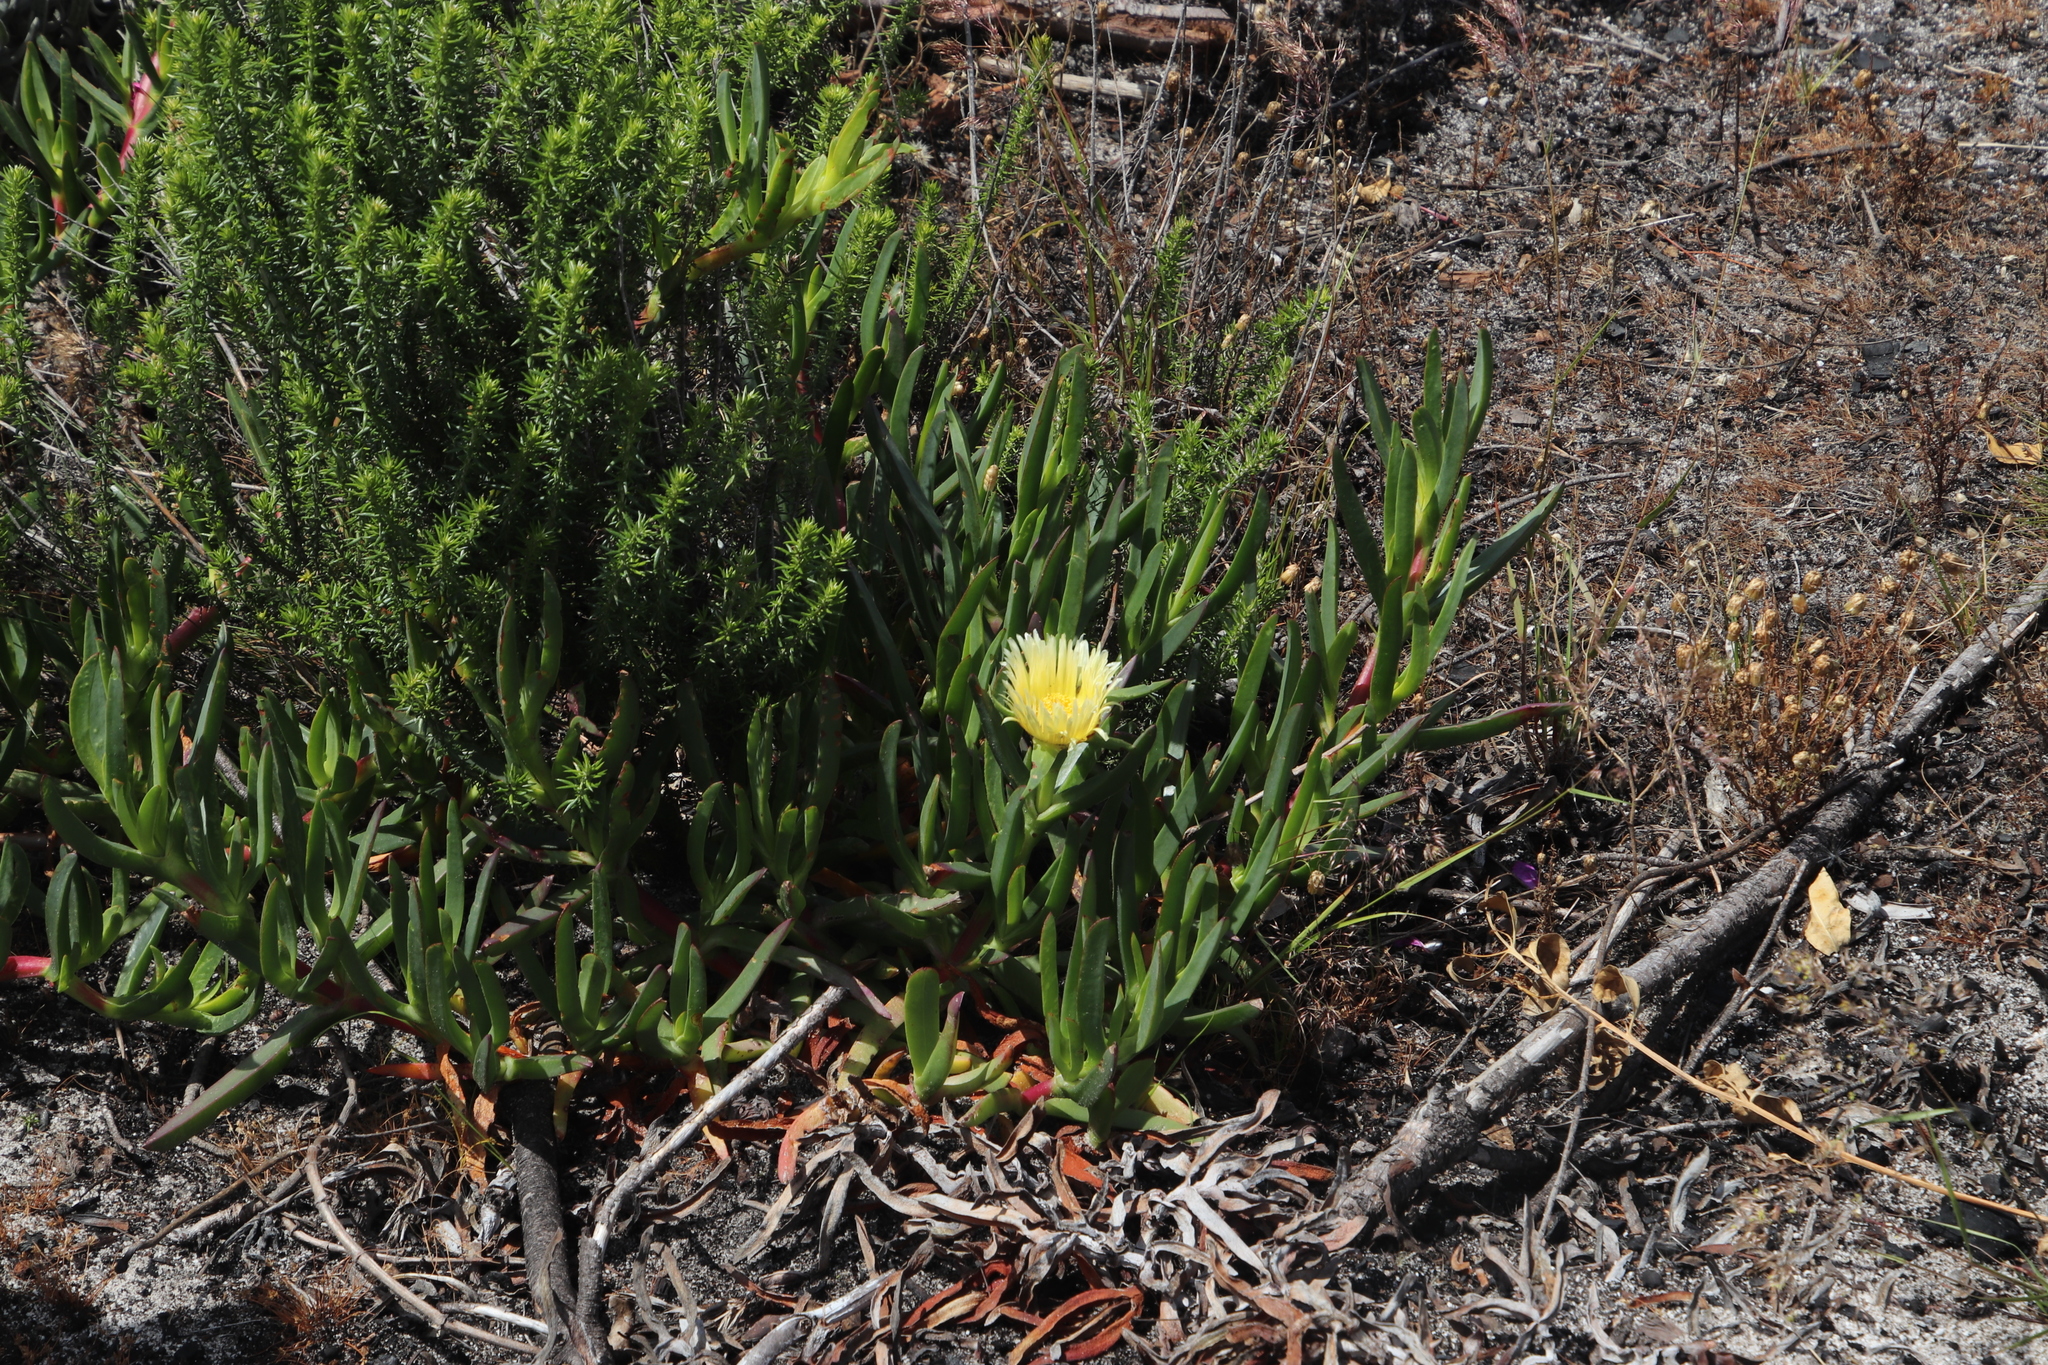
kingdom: Plantae
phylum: Tracheophyta
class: Magnoliopsida
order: Caryophyllales
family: Aizoaceae
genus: Carpobrotus
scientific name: Carpobrotus edulis
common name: Hottentot-fig
